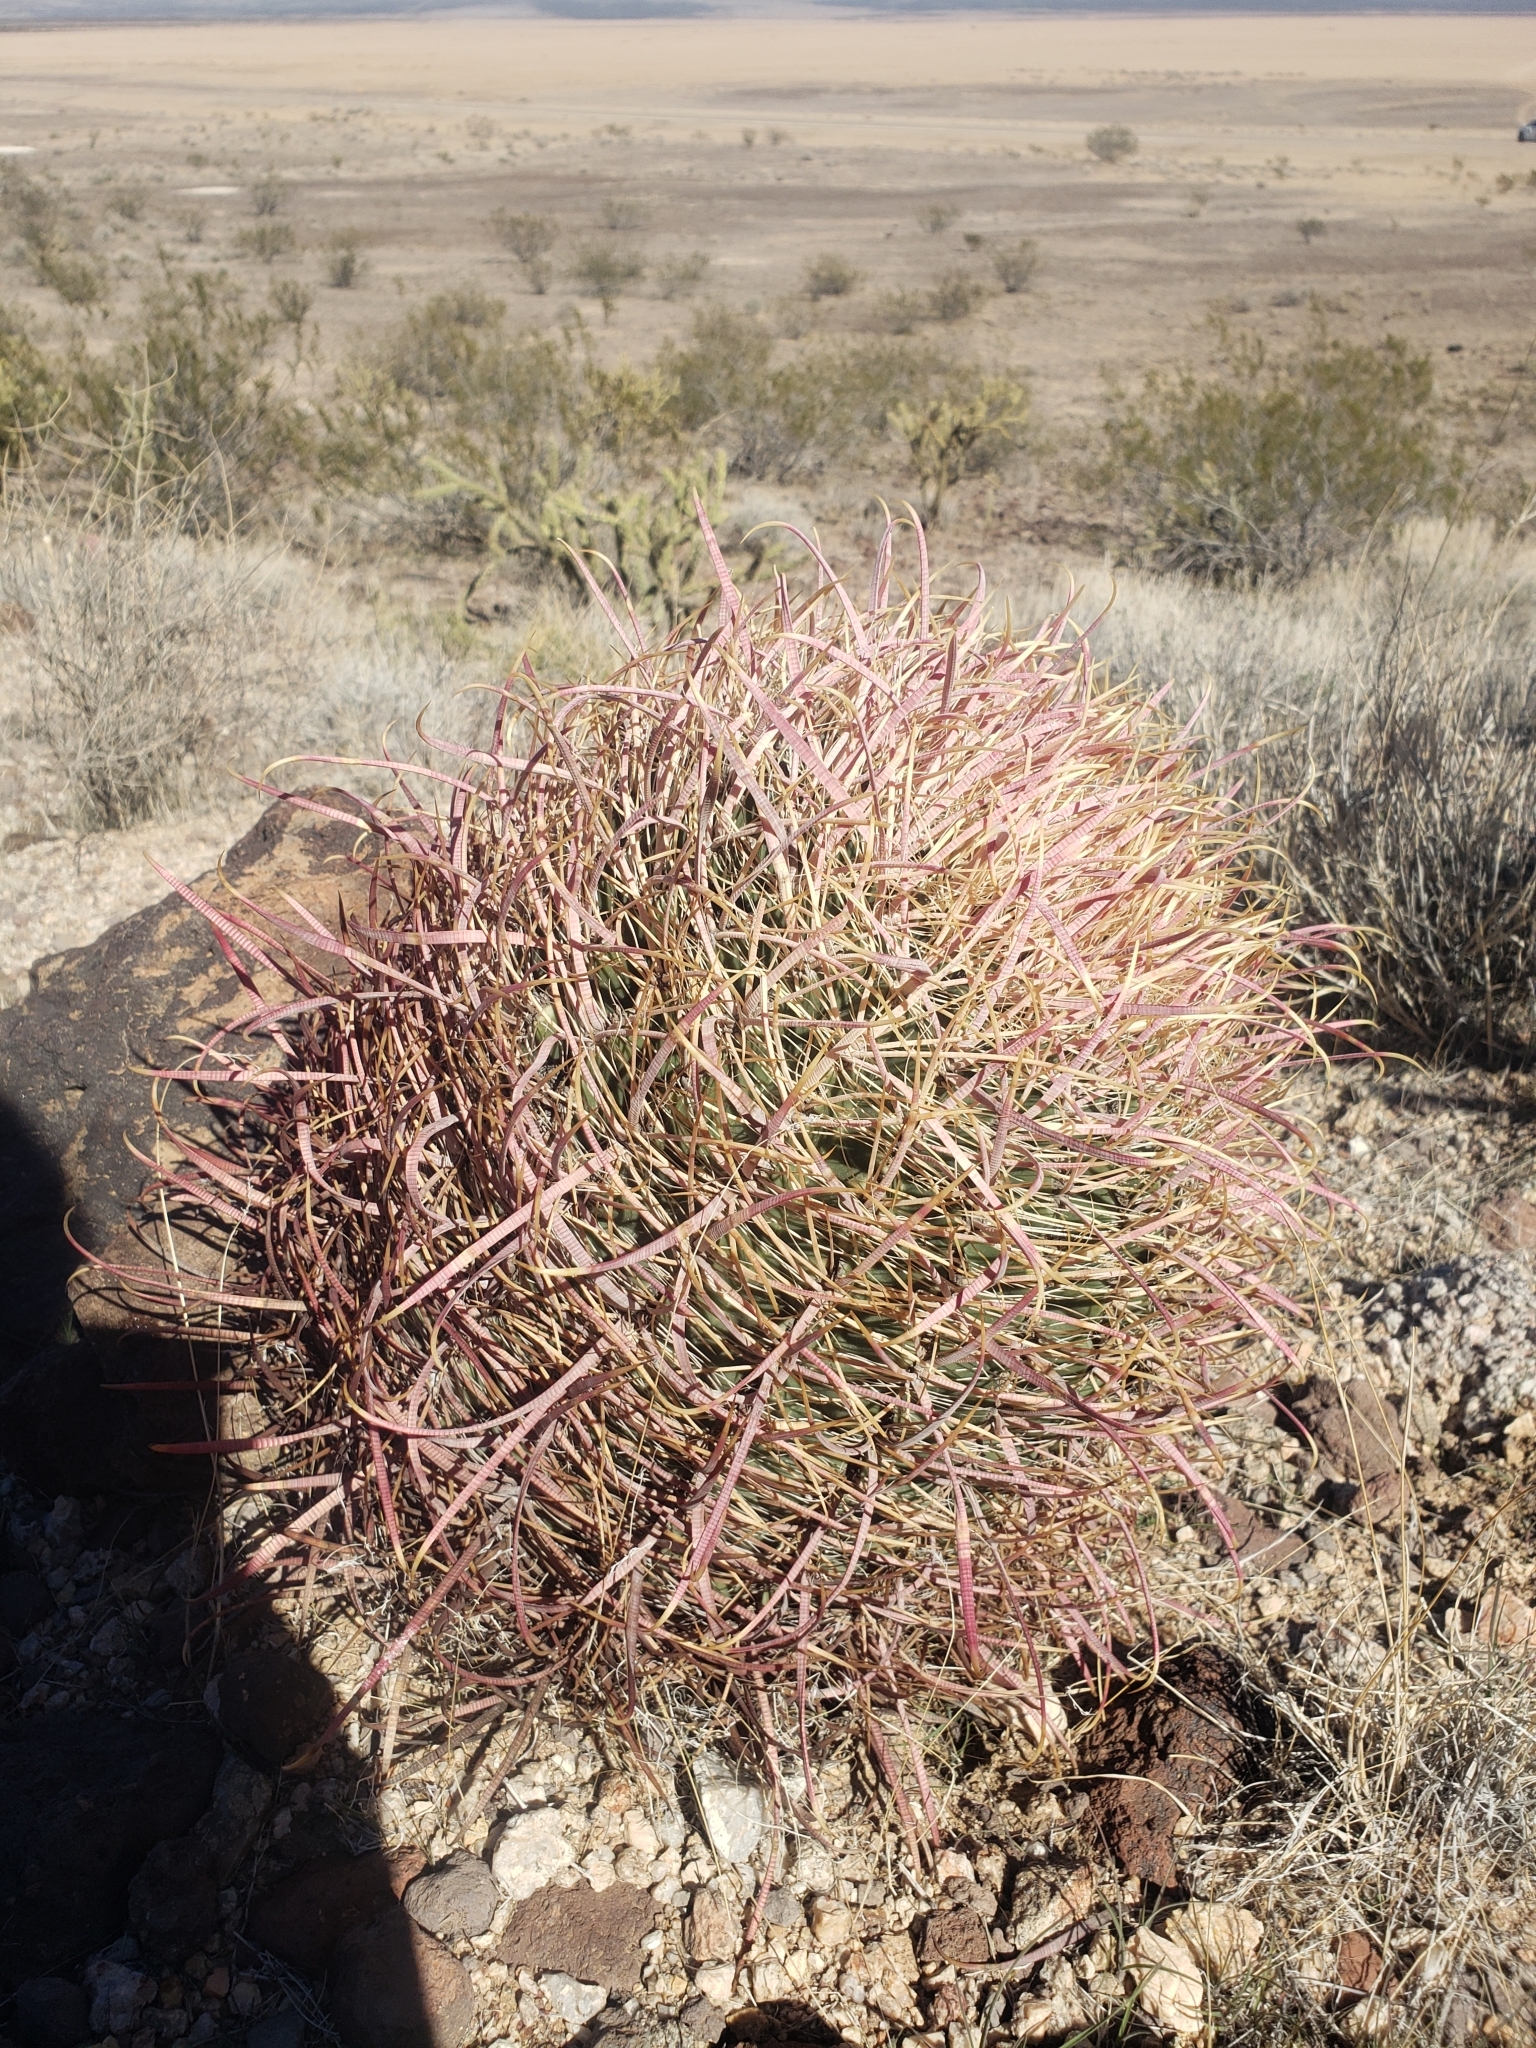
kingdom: Plantae
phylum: Tracheophyta
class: Magnoliopsida
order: Caryophyllales
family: Cactaceae
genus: Ferocactus
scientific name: Ferocactus cylindraceus
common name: California barrel cactus
